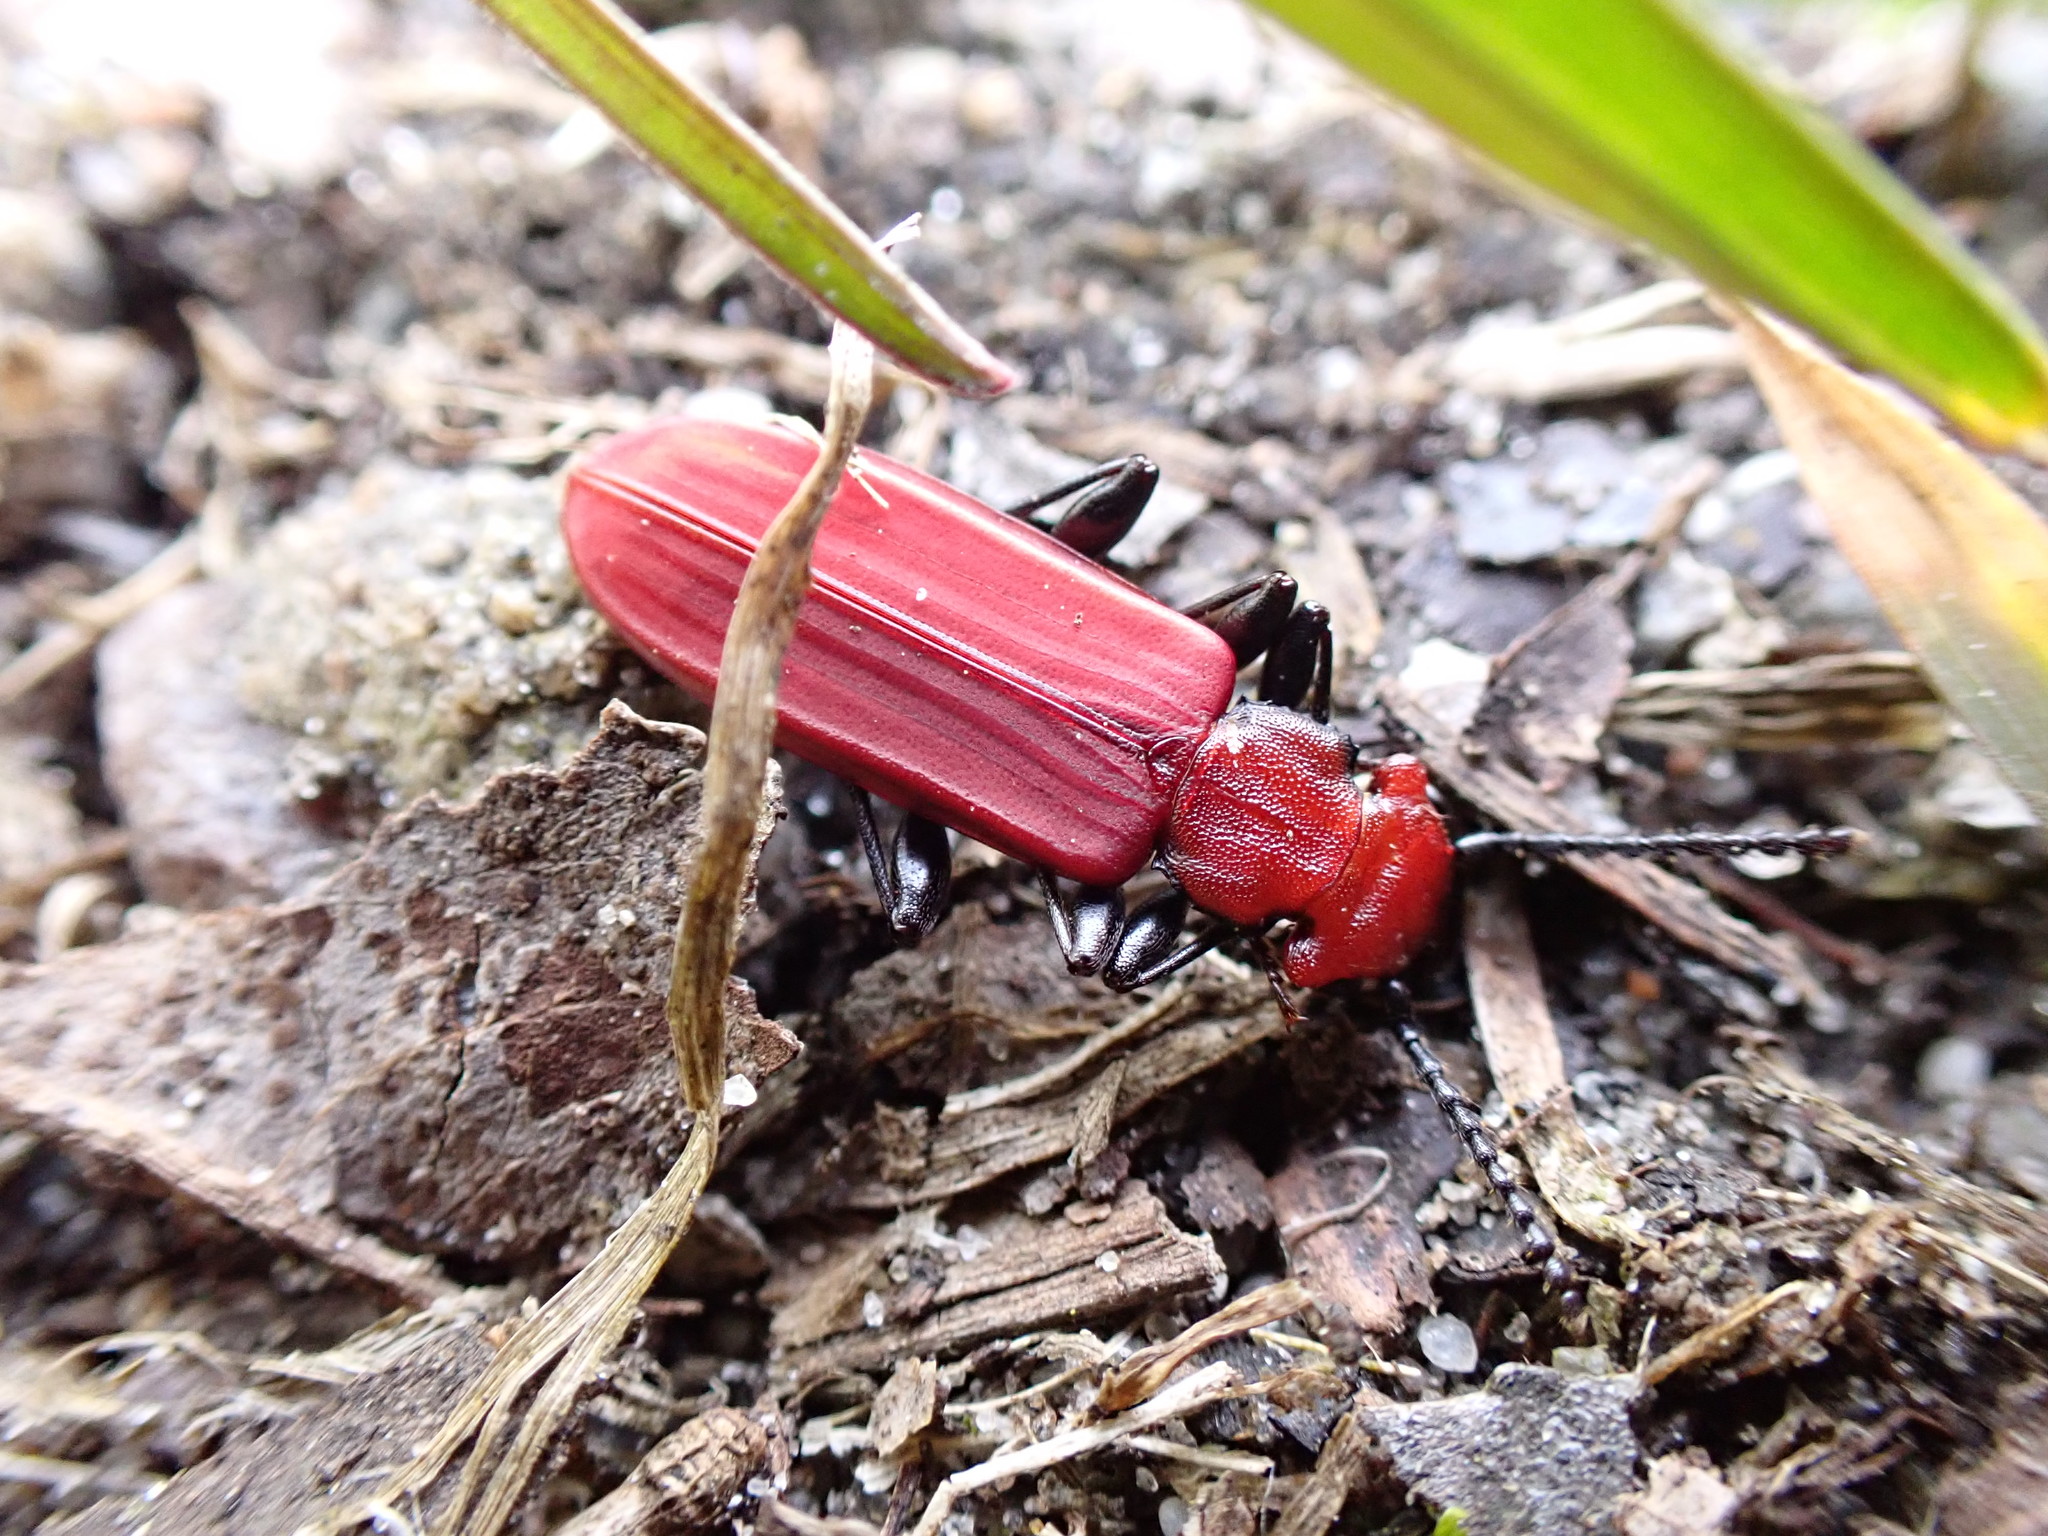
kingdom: Animalia
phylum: Arthropoda
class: Insecta
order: Coleoptera
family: Cucujidae
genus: Cucujus
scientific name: Cucujus cinnaberinus
